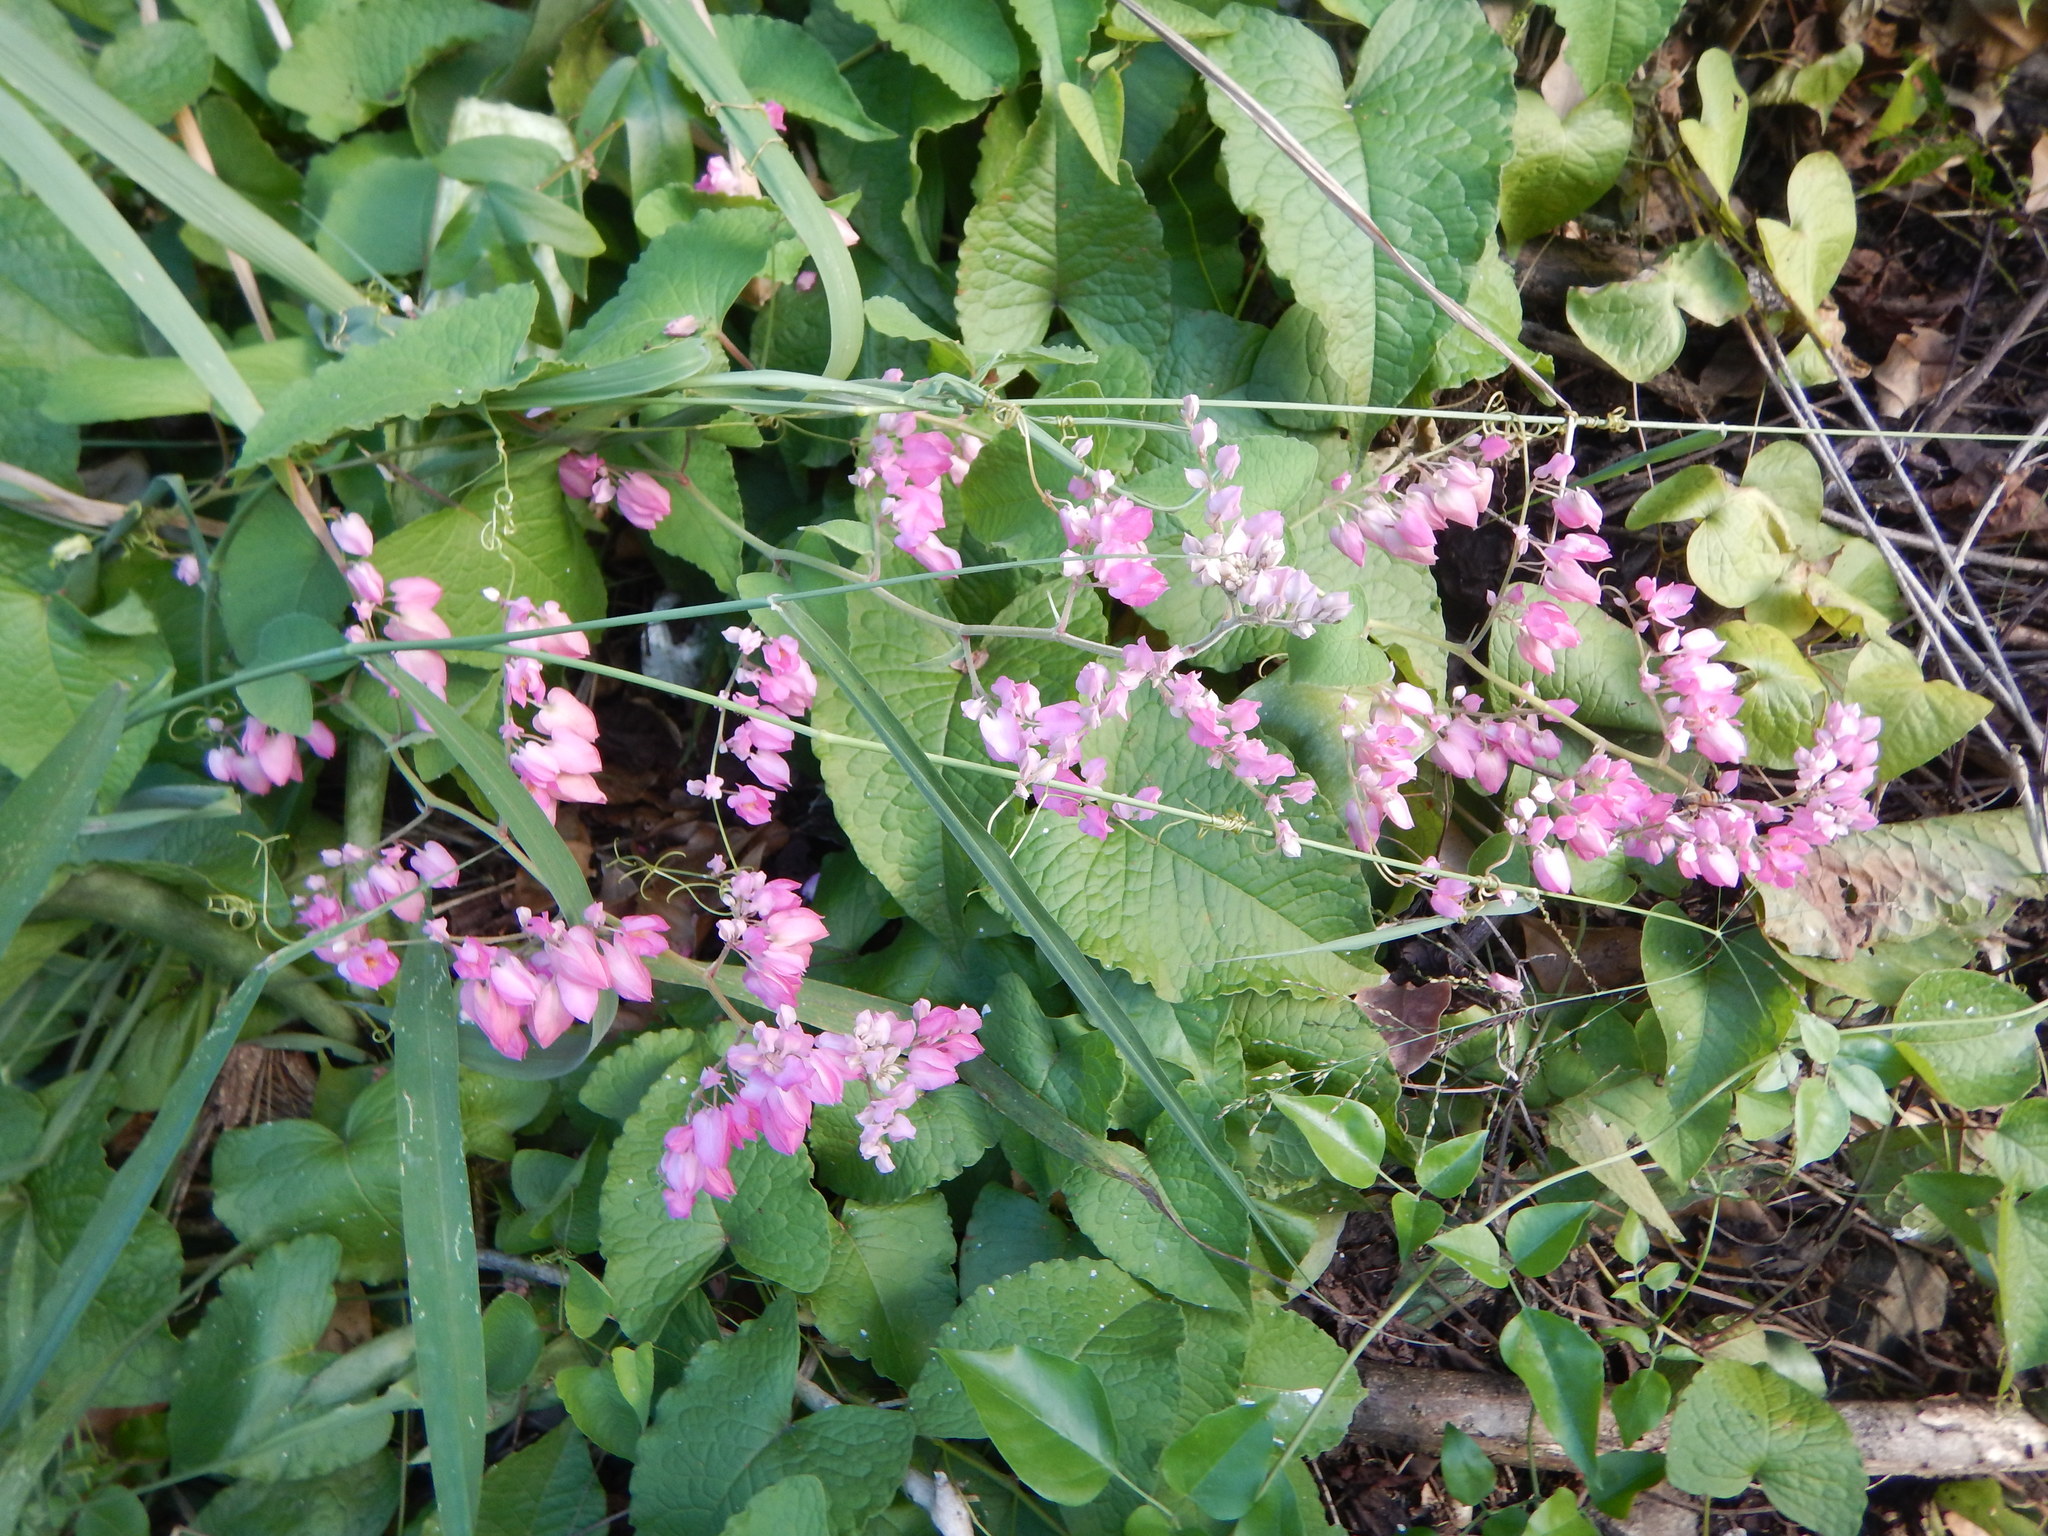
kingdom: Plantae
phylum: Tracheophyta
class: Magnoliopsida
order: Caryophyllales
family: Polygonaceae
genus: Antigonon
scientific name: Antigonon leptopus
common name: Coral vine
